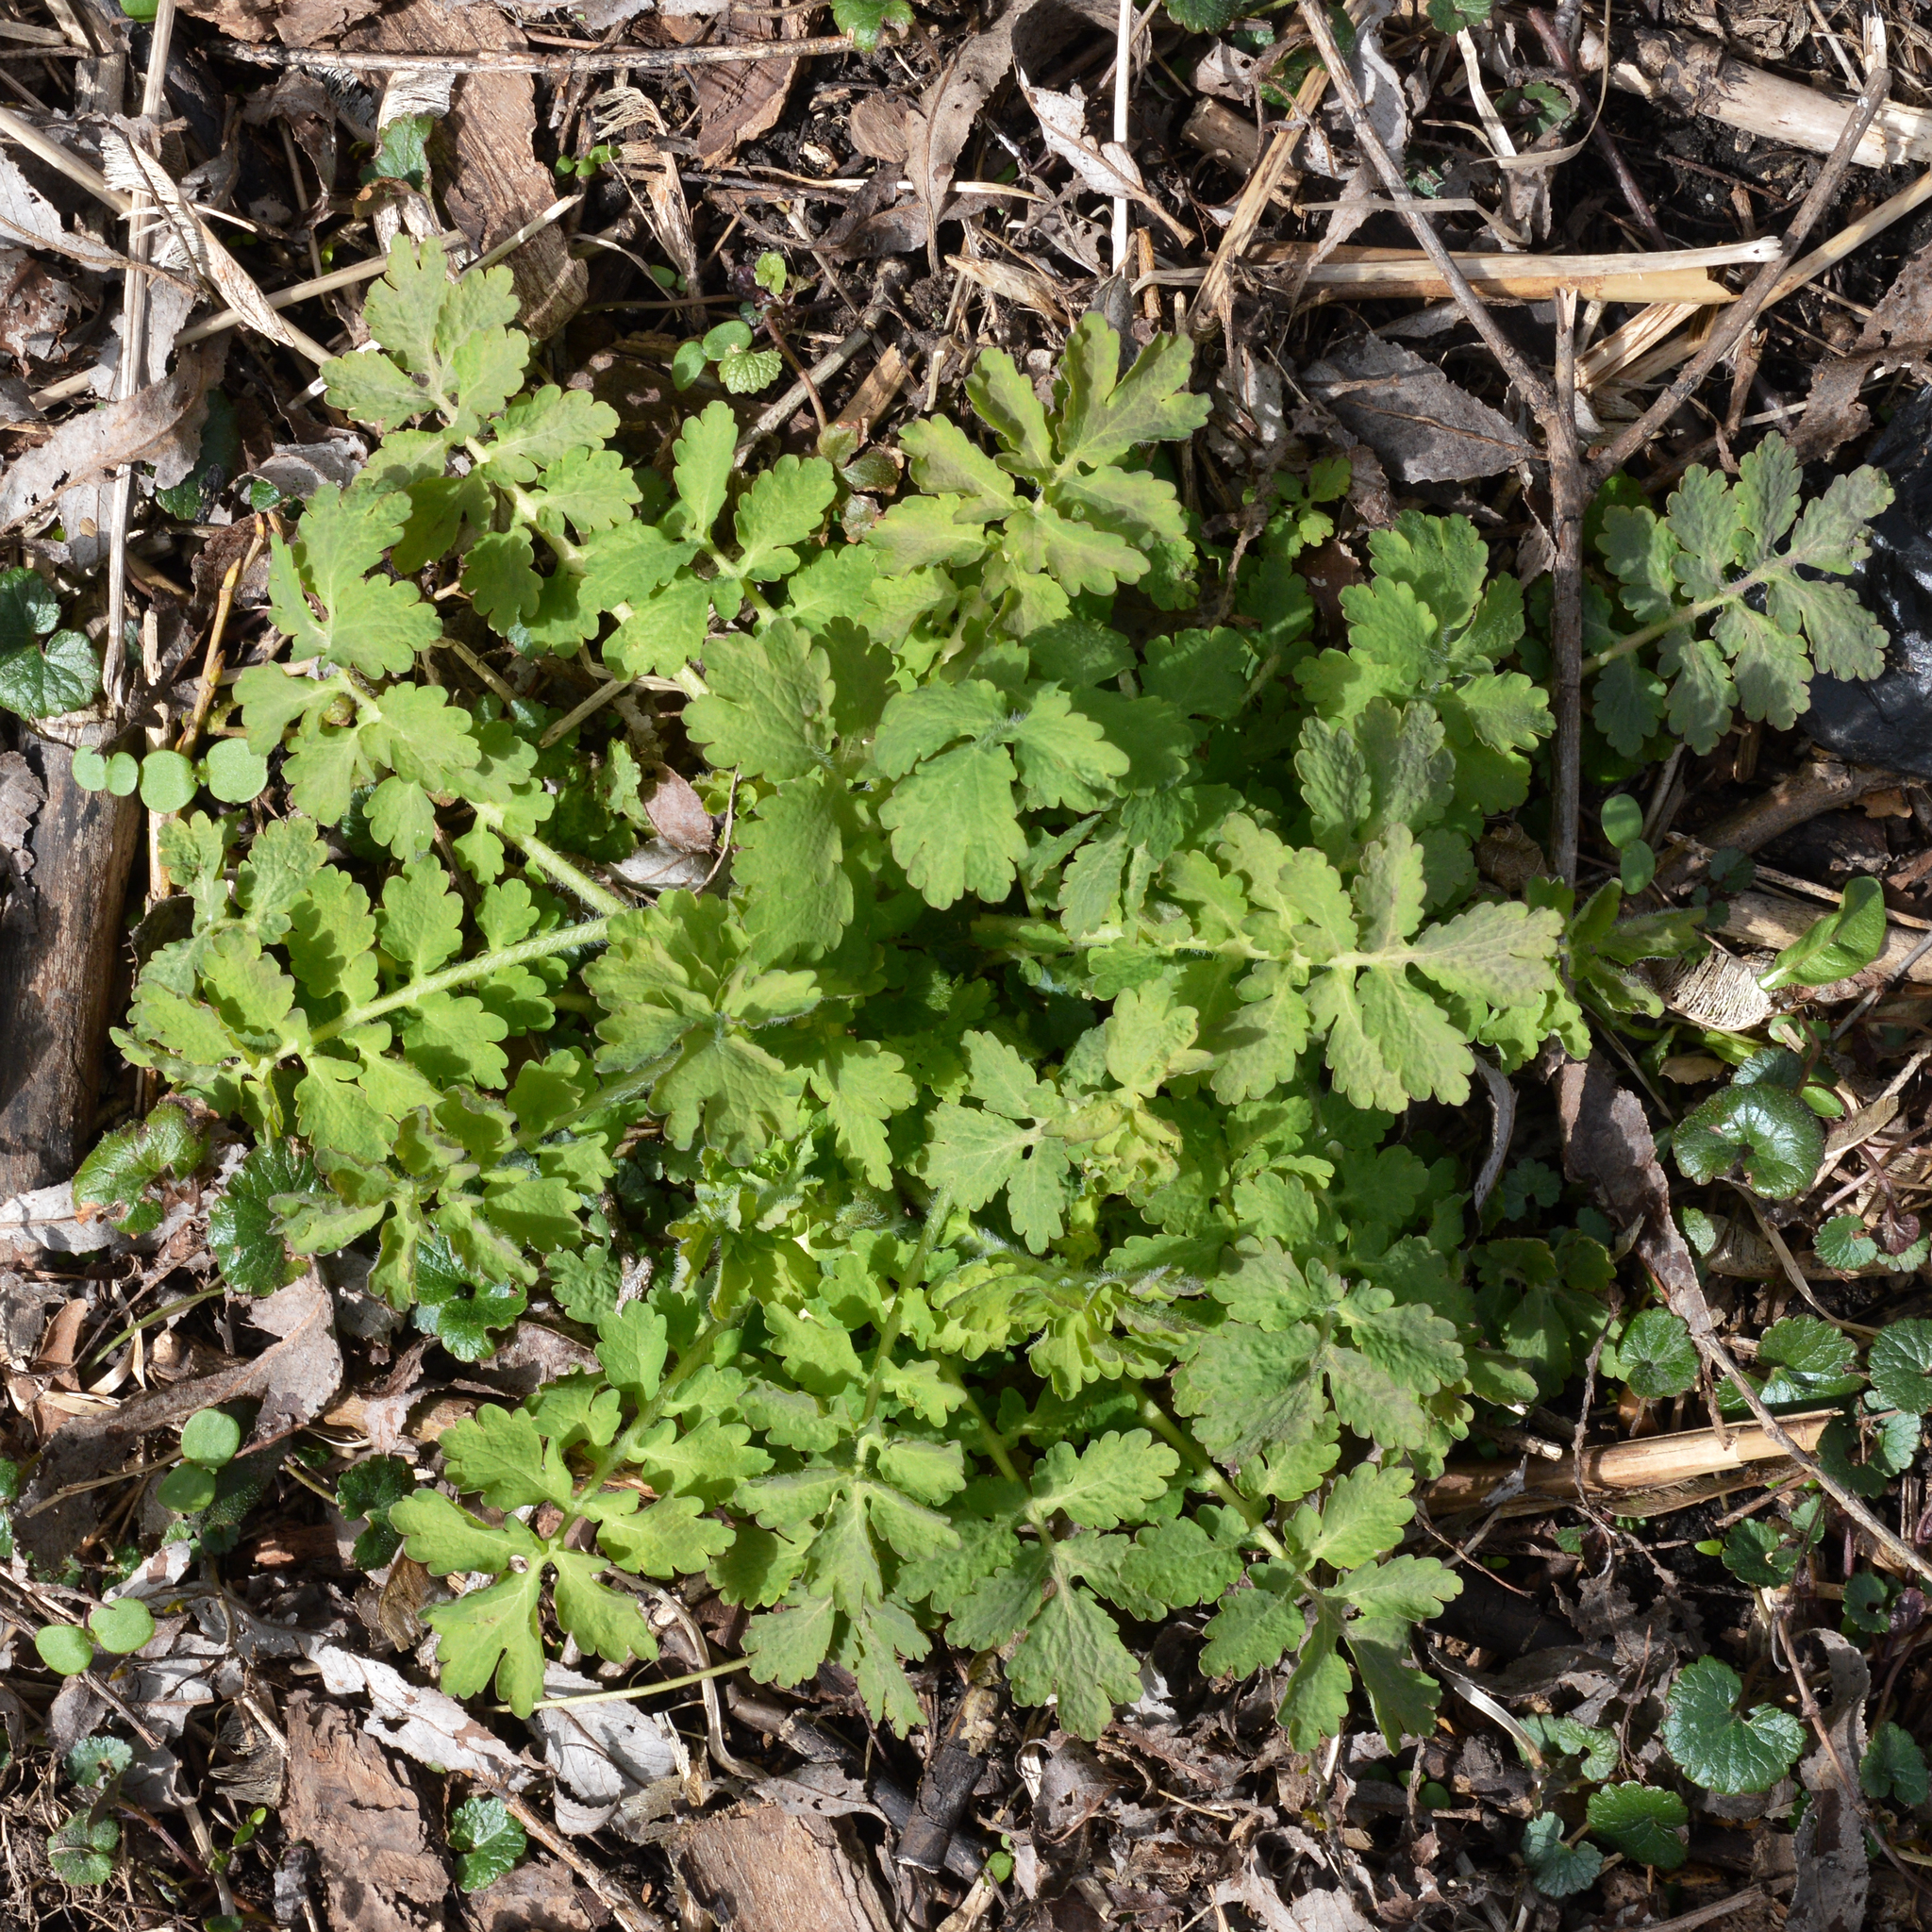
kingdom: Plantae
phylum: Tracheophyta
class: Magnoliopsida
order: Ranunculales
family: Papaveraceae
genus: Chelidonium
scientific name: Chelidonium majus
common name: Greater celandine
